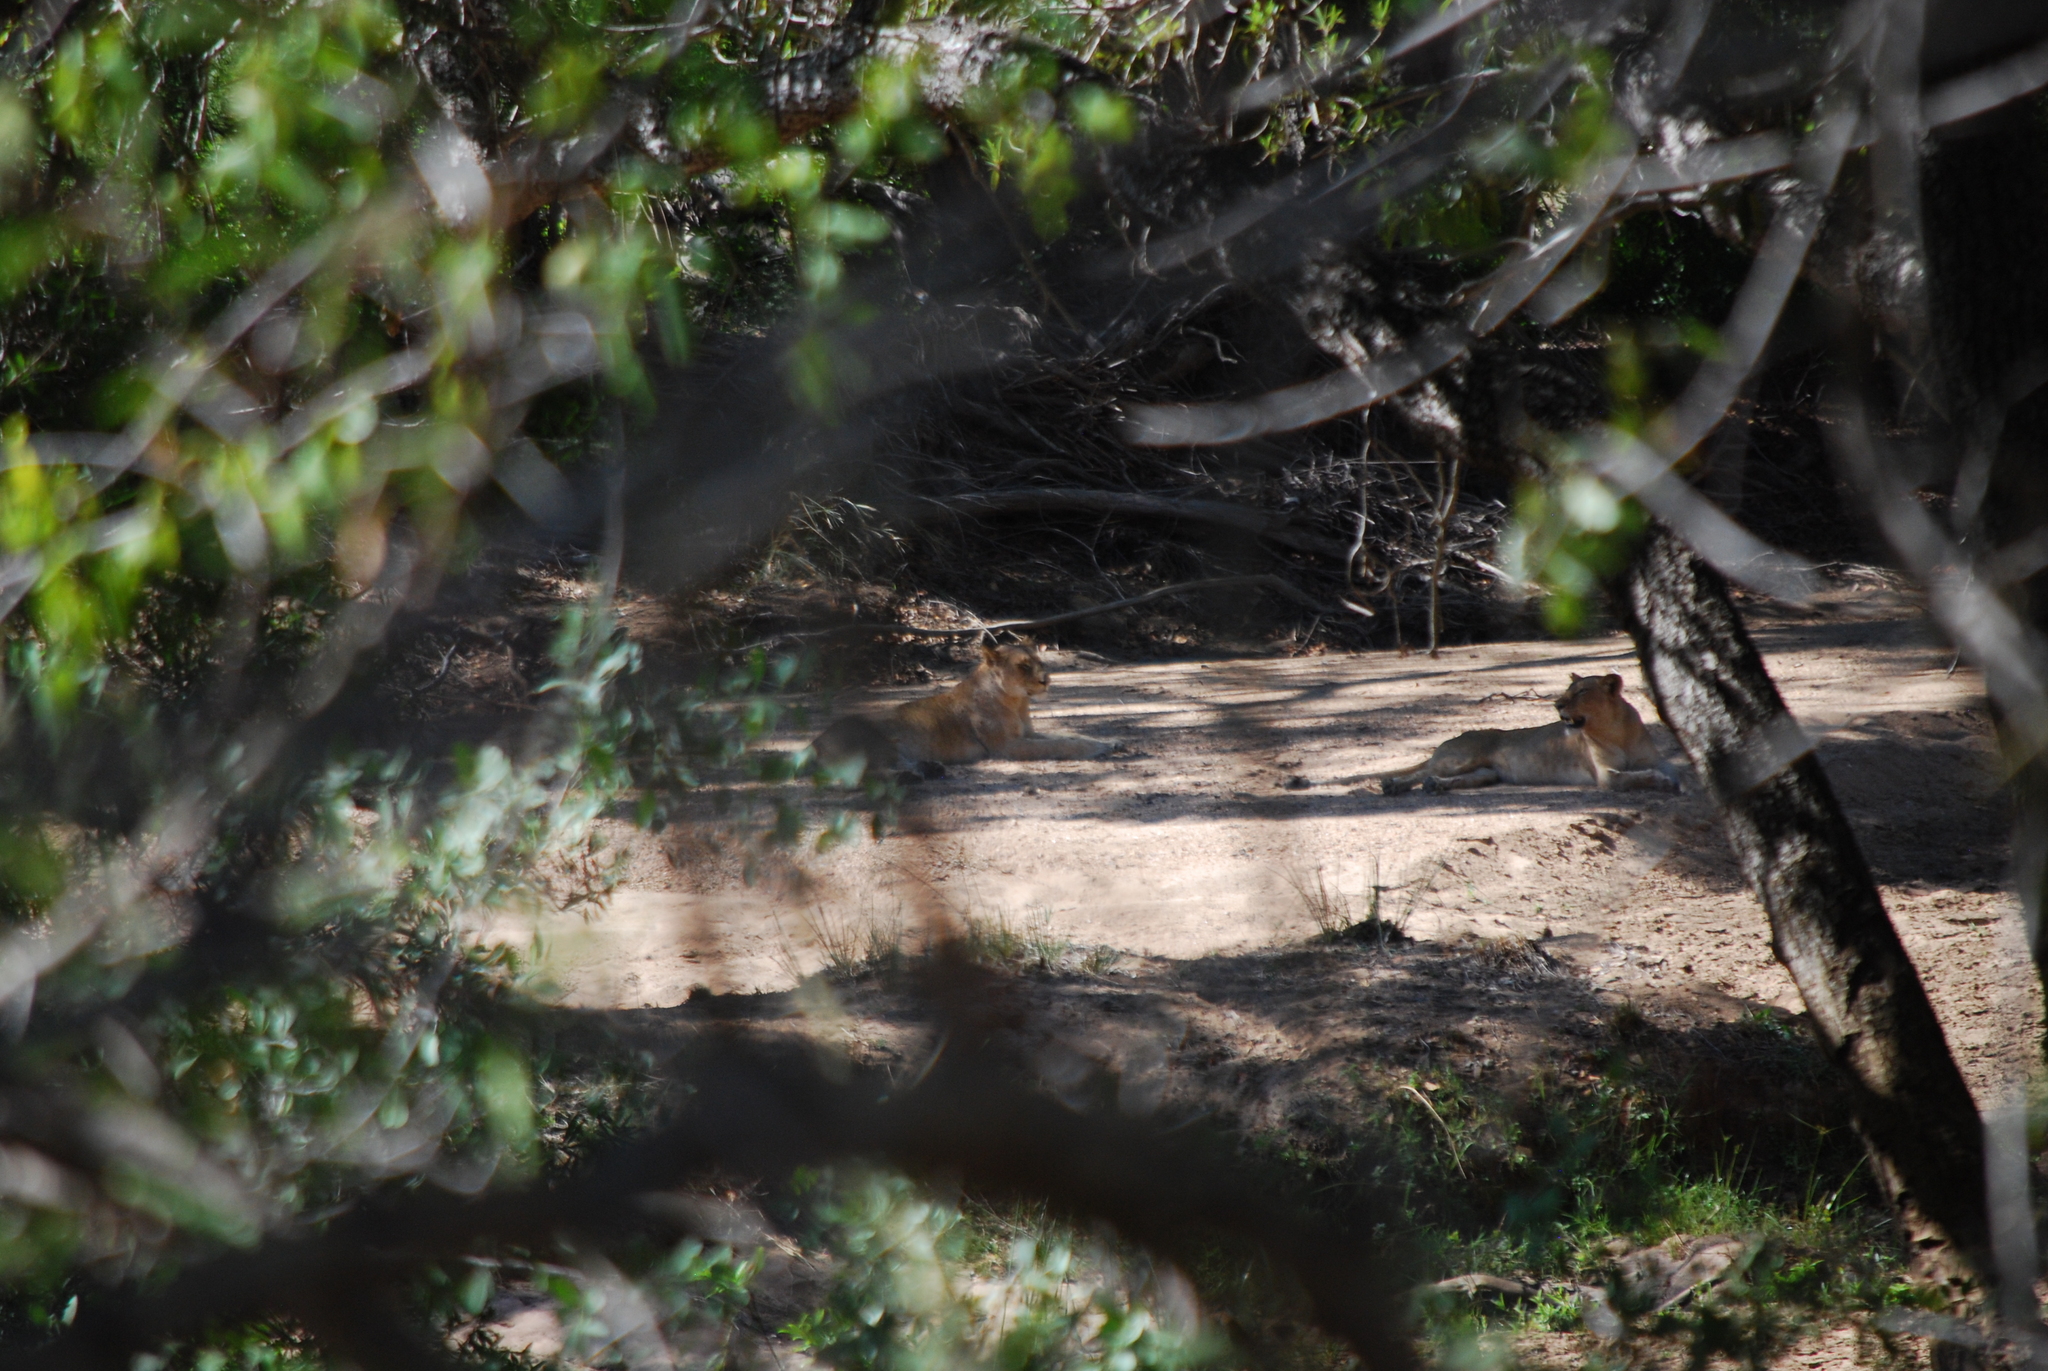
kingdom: Animalia
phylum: Chordata
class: Mammalia
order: Carnivora
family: Felidae
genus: Panthera
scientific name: Panthera leo
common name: Lion
